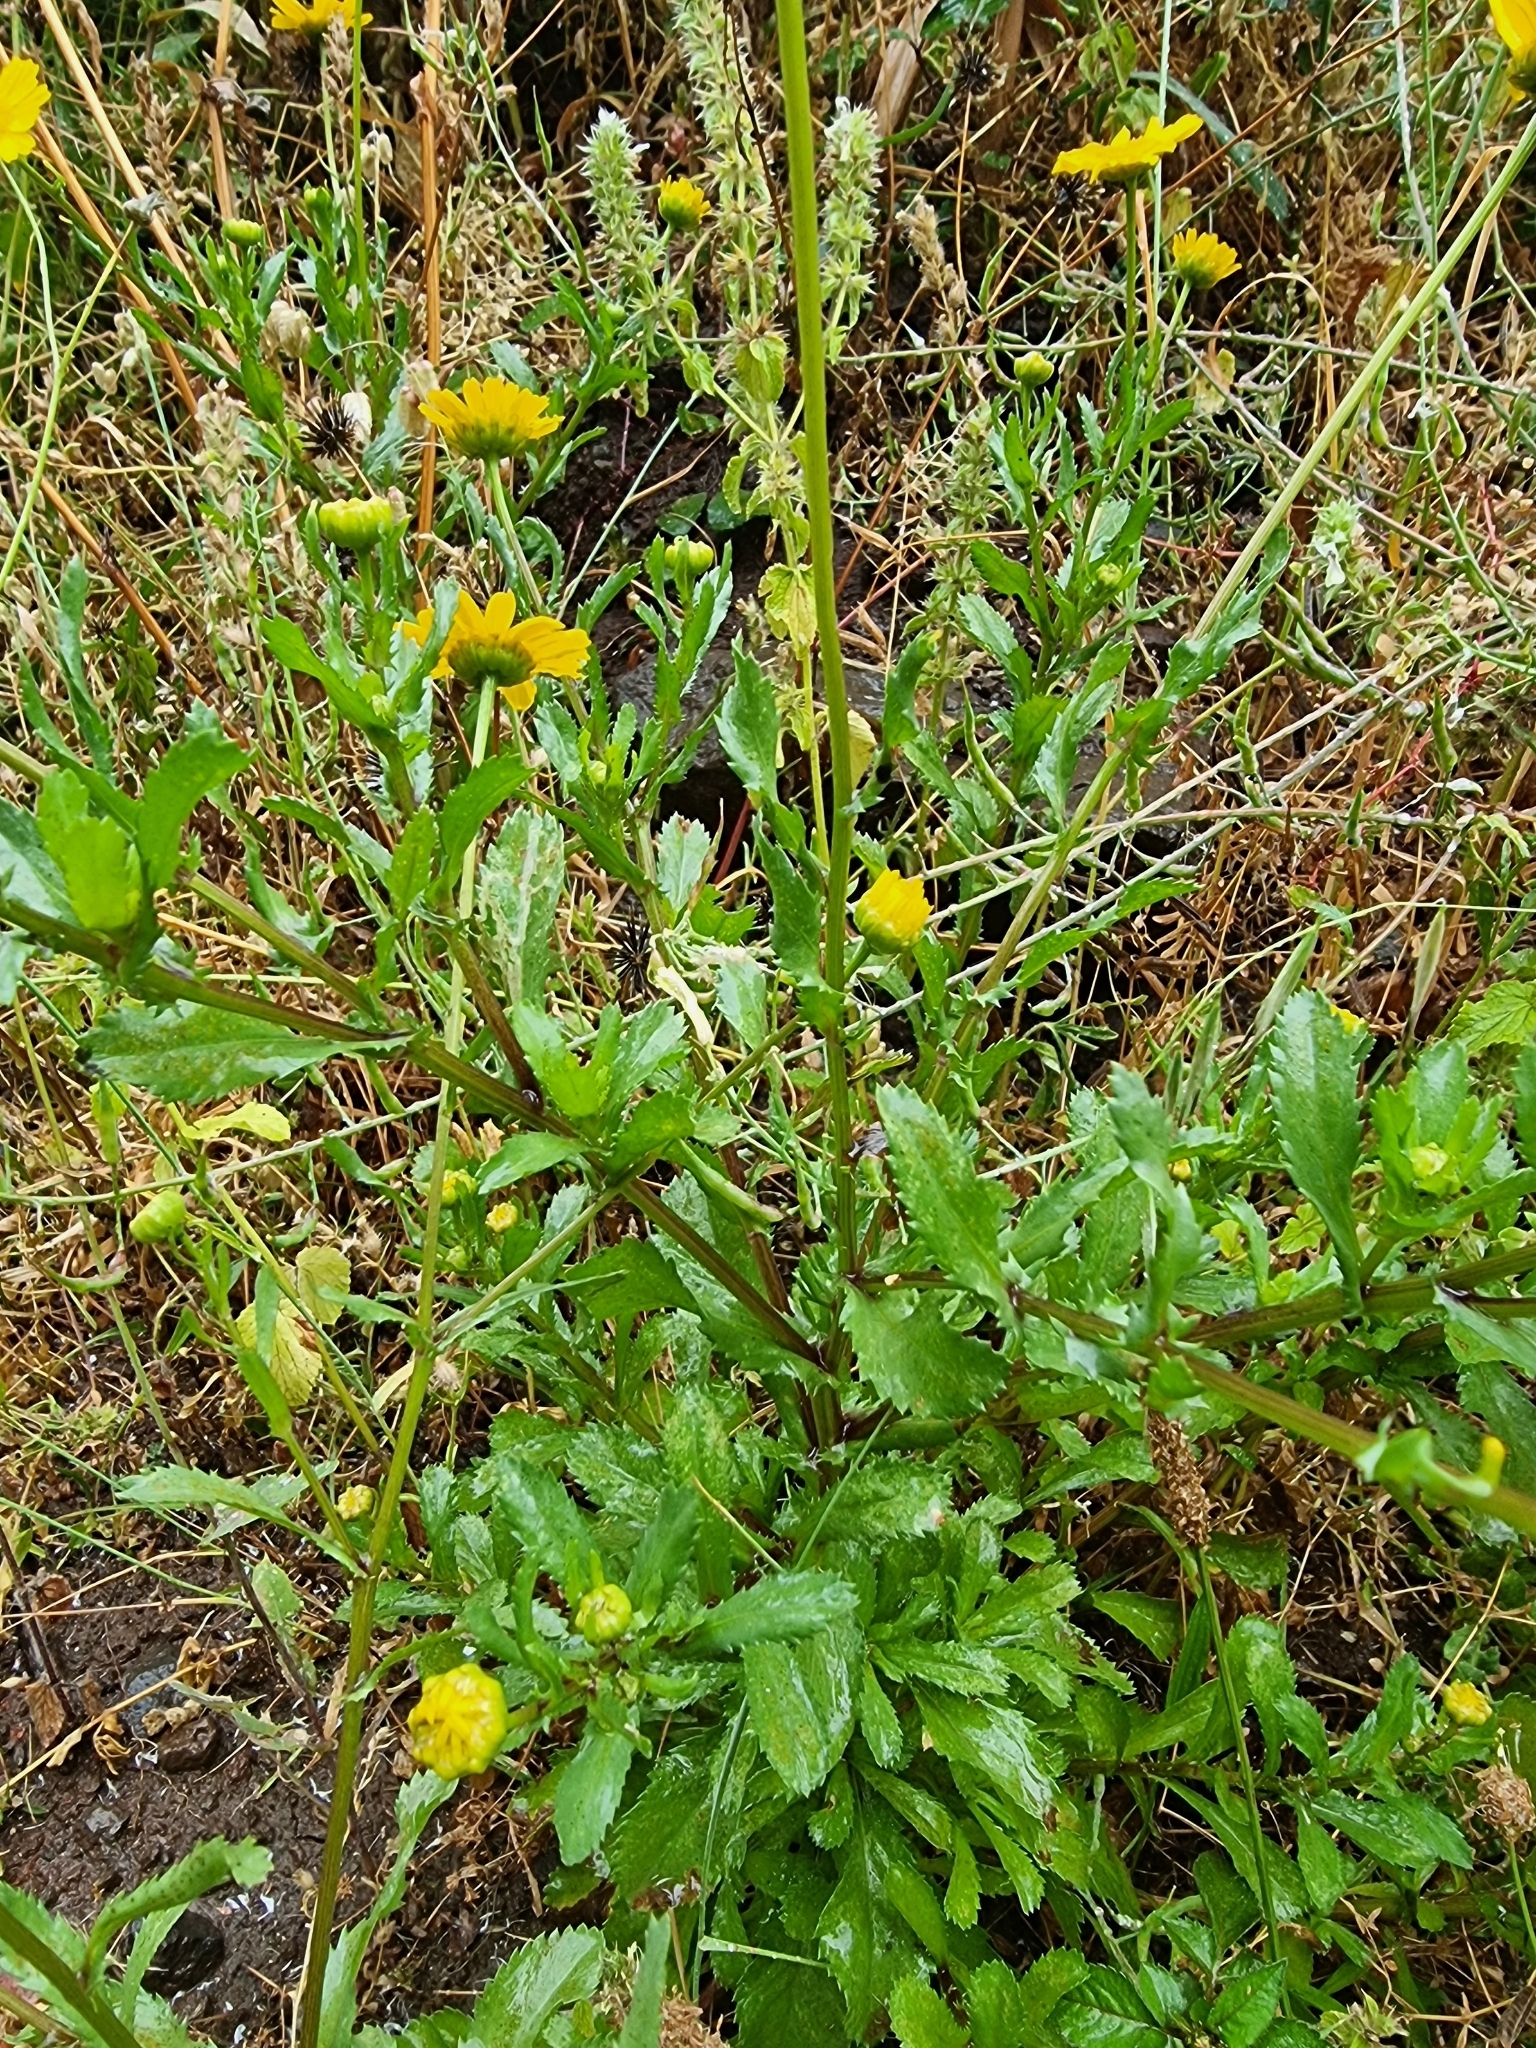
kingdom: Plantae
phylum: Tracheophyta
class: Magnoliopsida
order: Asterales
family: Asteraceae
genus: Coleostephus
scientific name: Coleostephus myconis
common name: Mediterranean marigold
